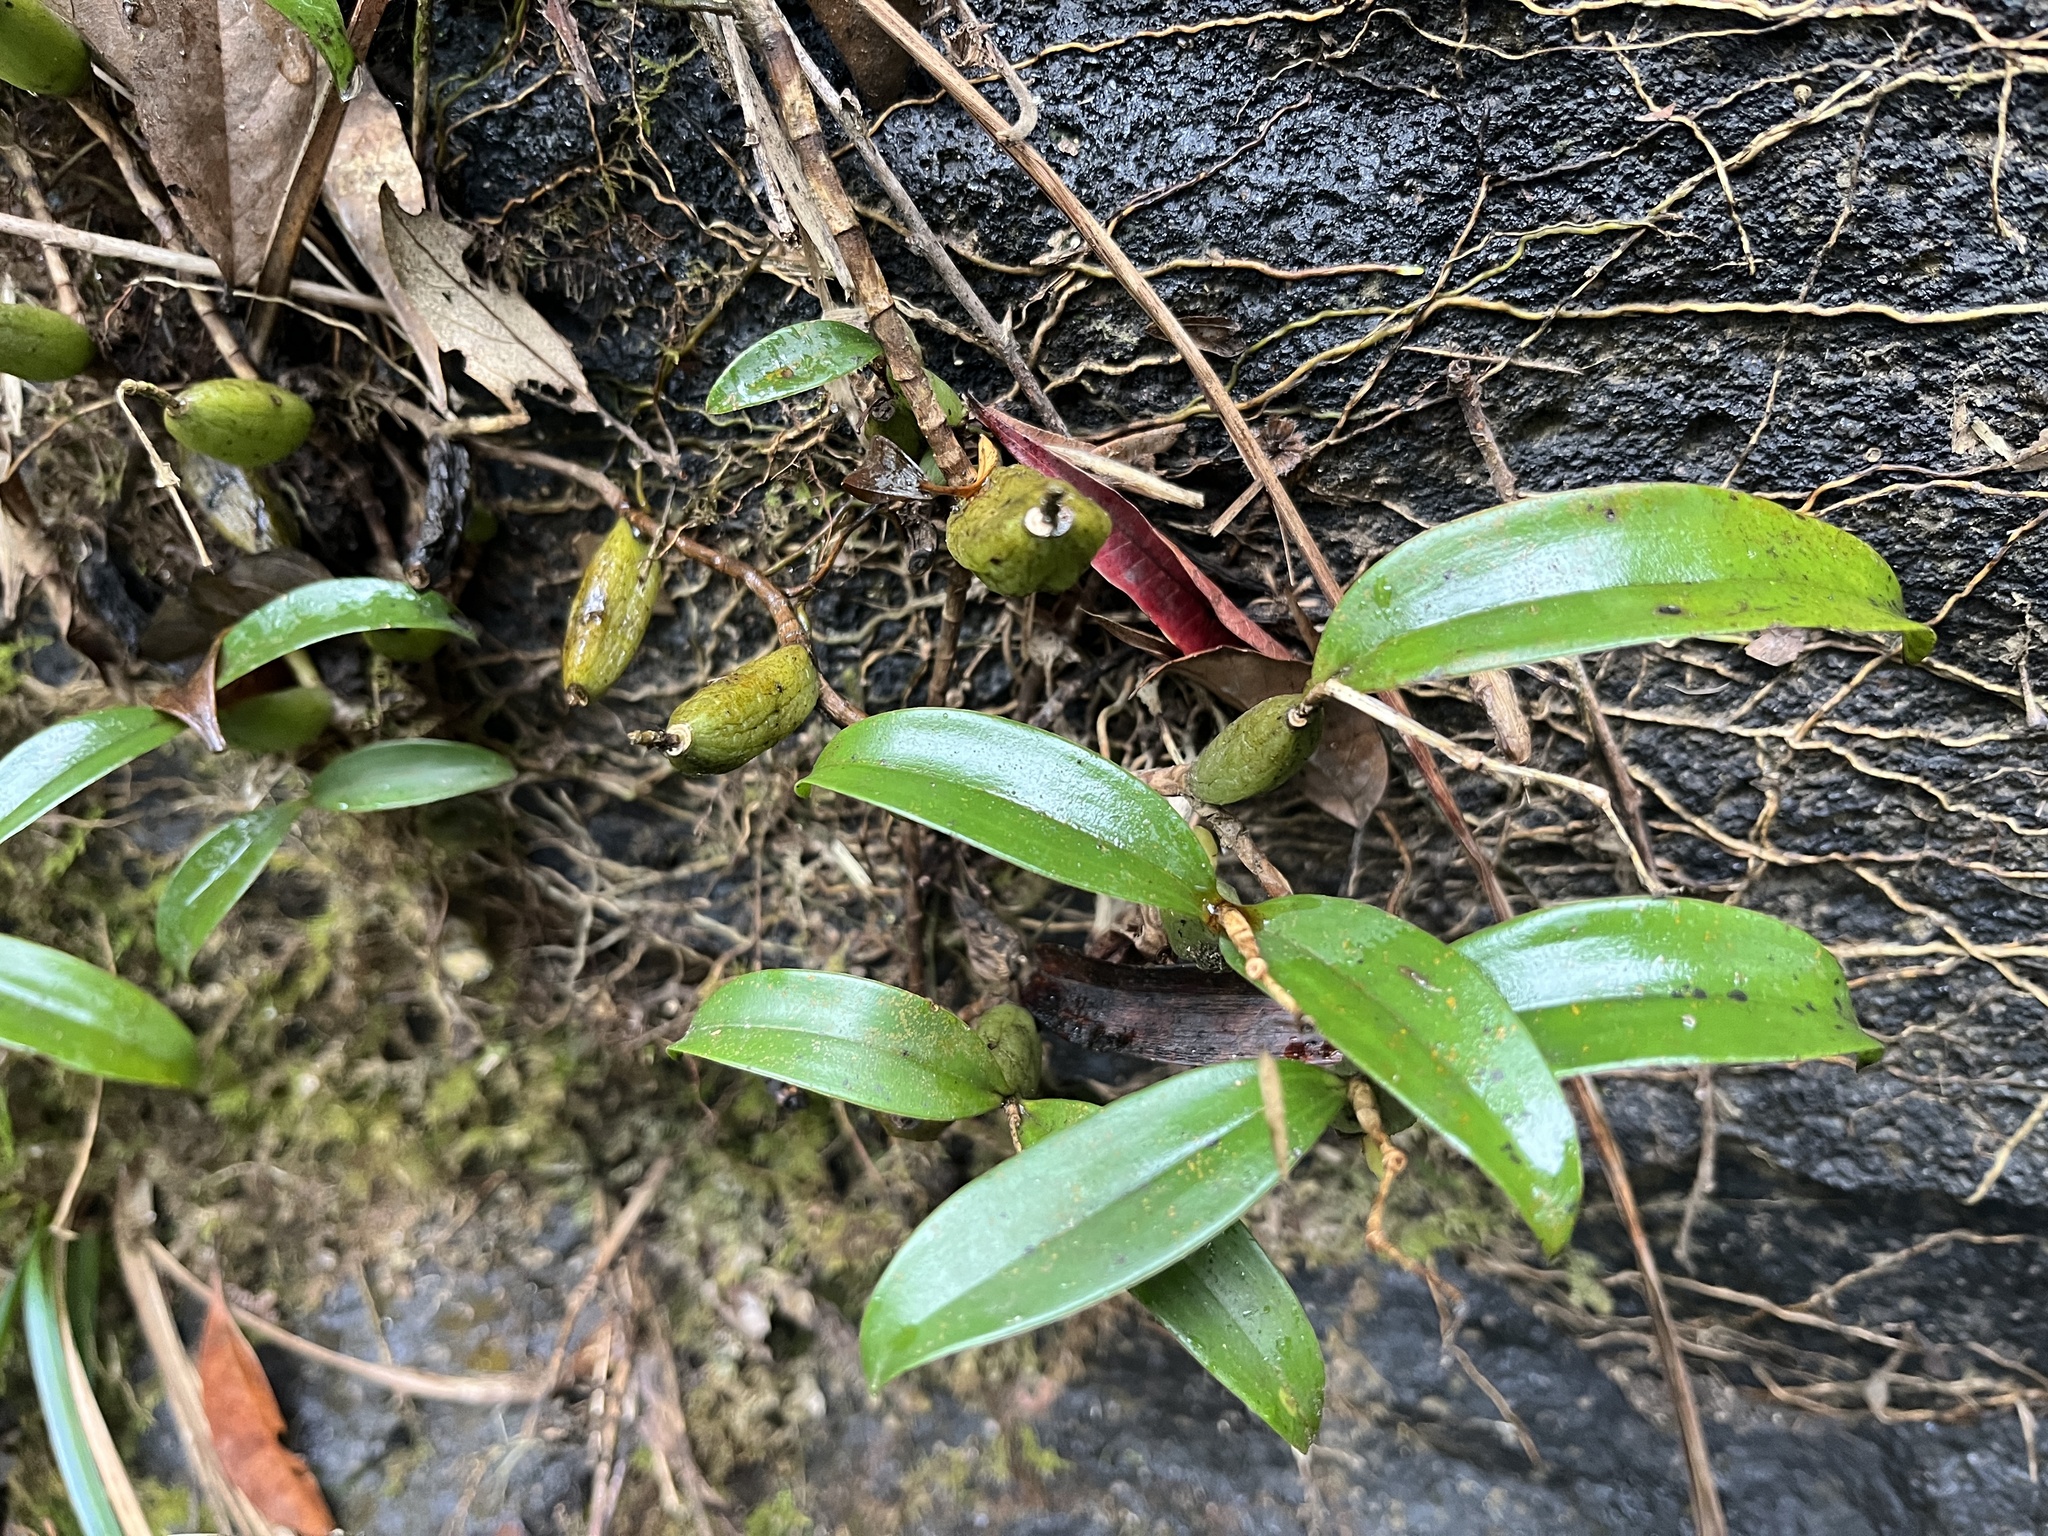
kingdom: Plantae
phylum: Tracheophyta
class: Liliopsida
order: Asparagales
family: Orchidaceae
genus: Coelogyne
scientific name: Coelogyne fimbriata
